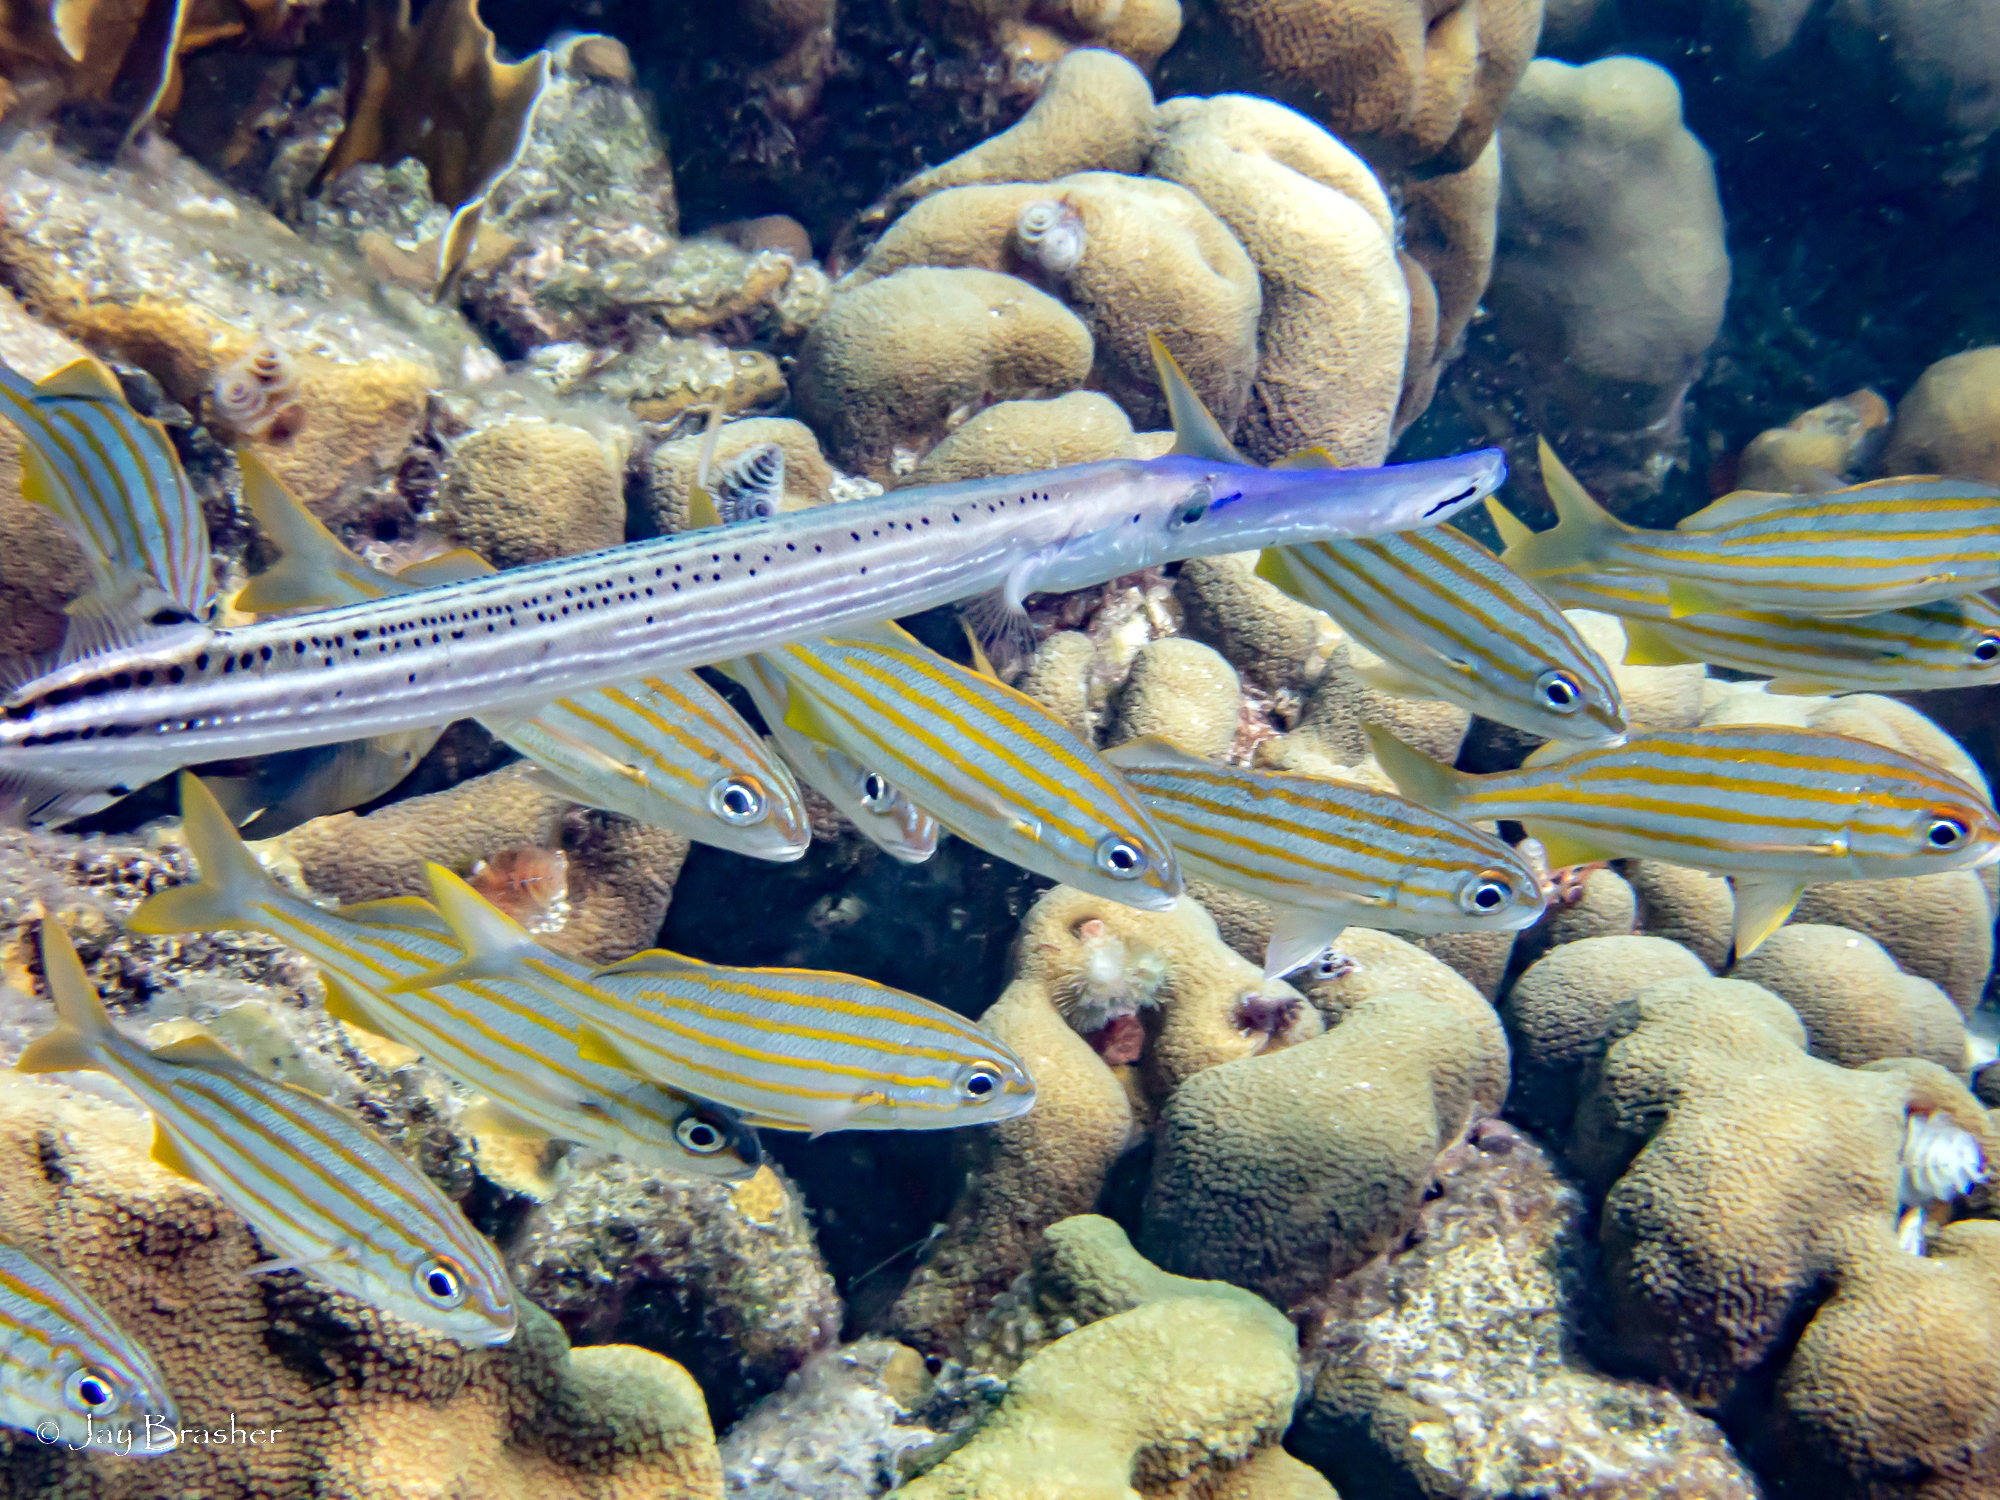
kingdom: Animalia
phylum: Cnidaria
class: Anthozoa
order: Scleractinia
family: Merulinidae
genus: Orbicella
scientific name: Orbicella annularis
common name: Boulder star coral
